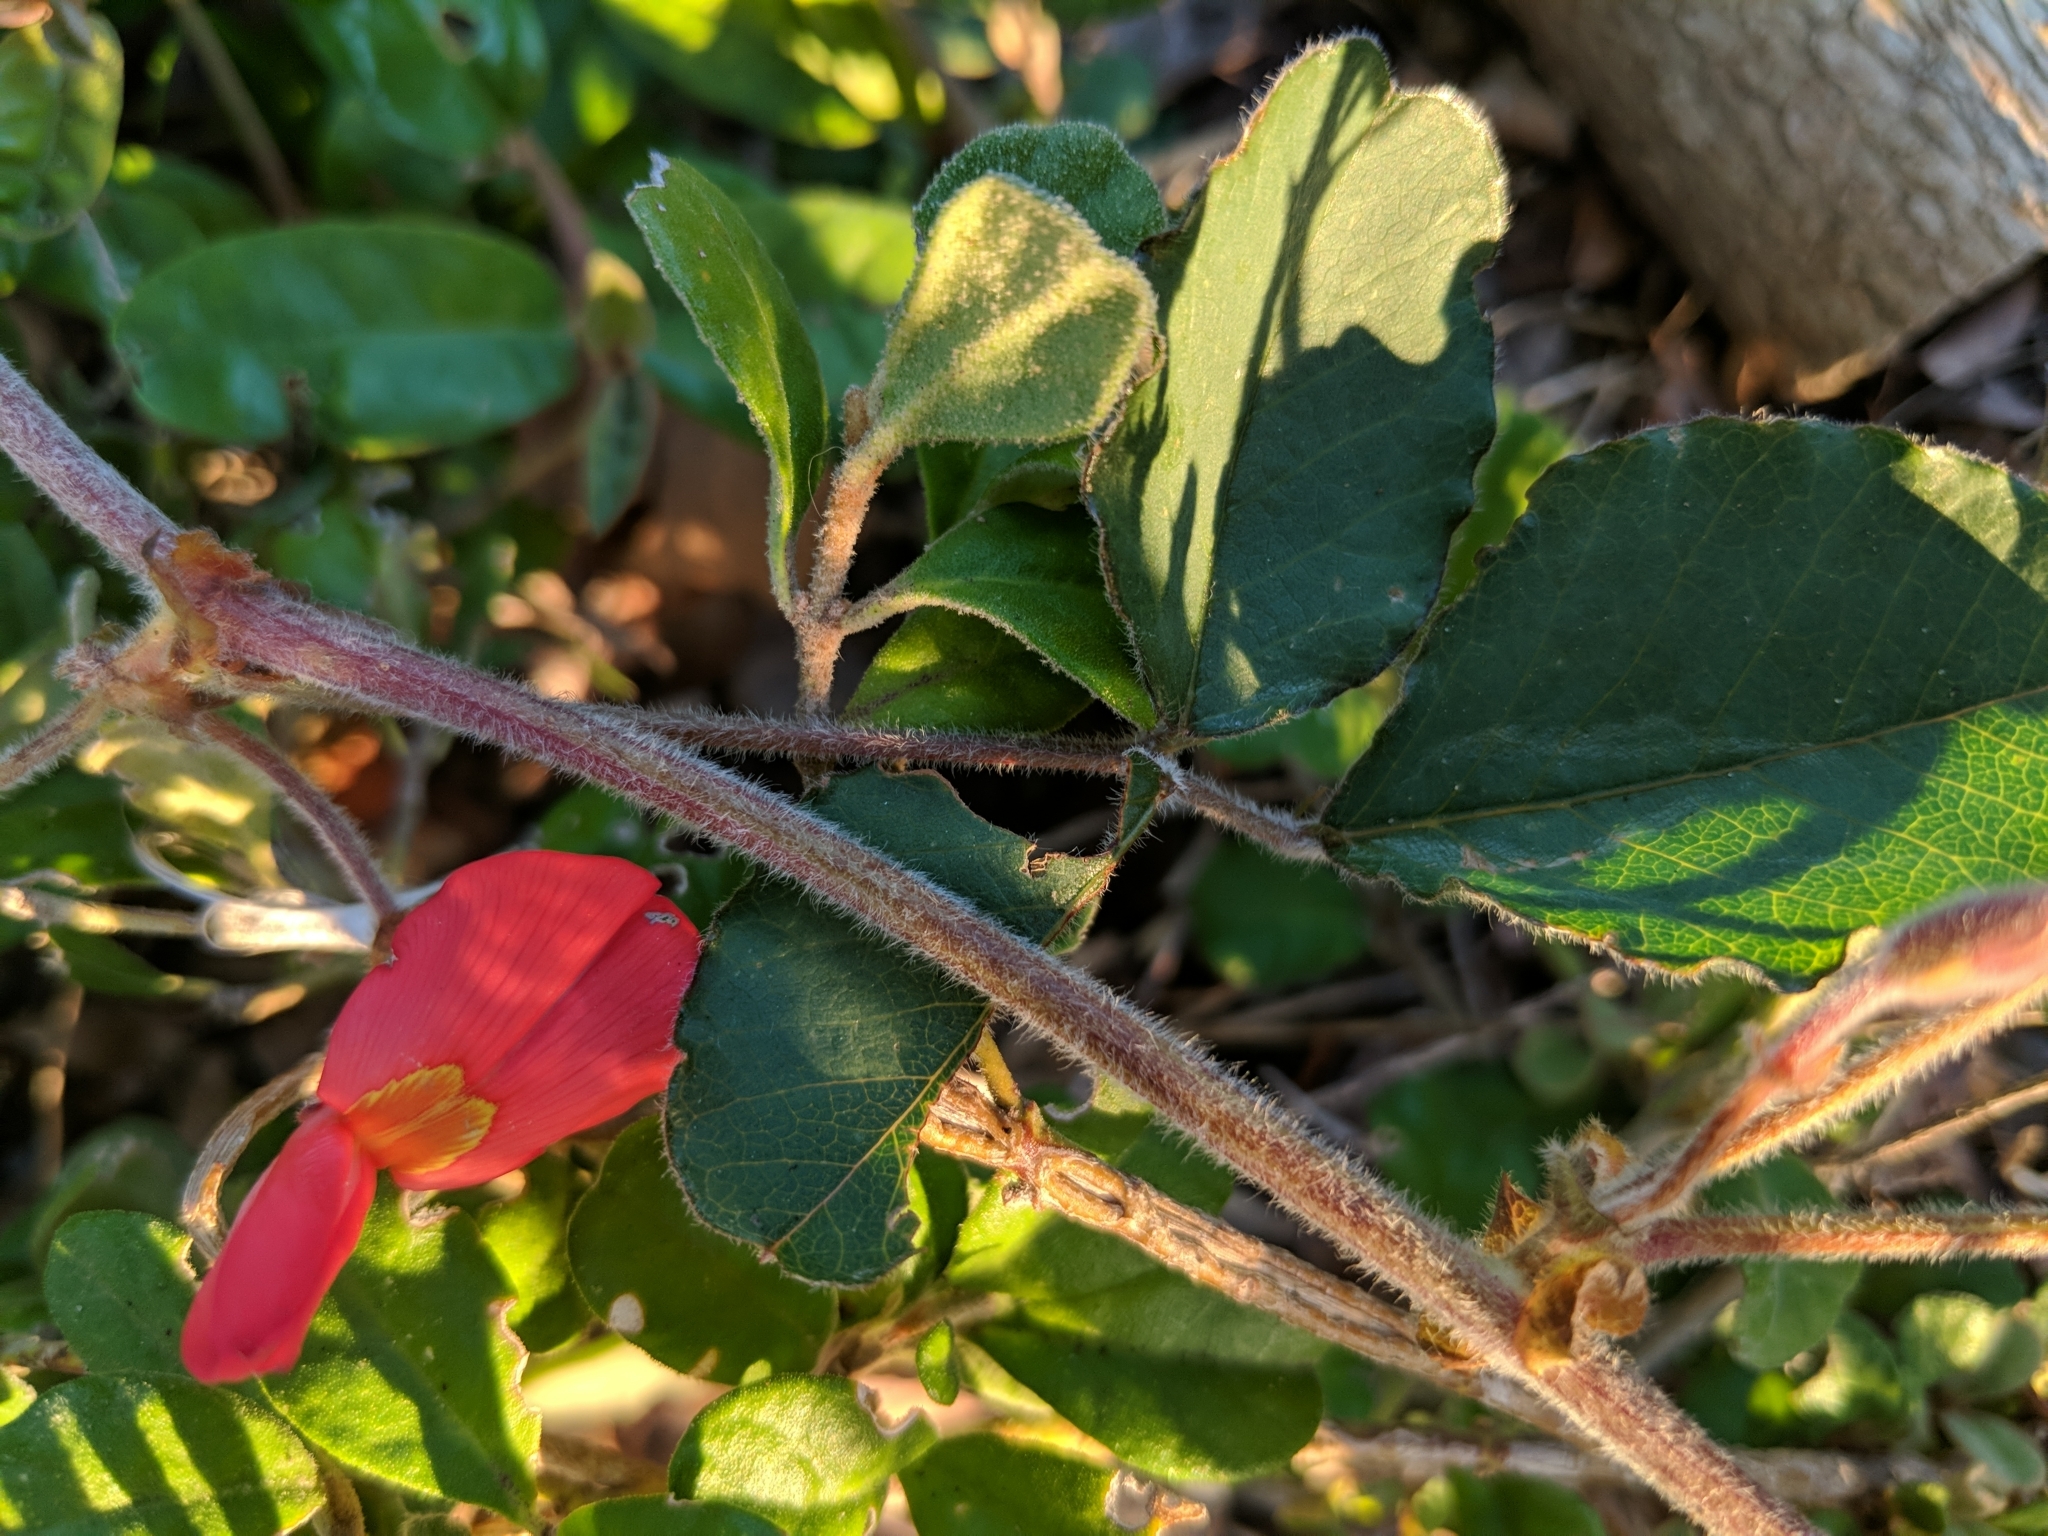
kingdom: Plantae
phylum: Tracheophyta
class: Magnoliopsida
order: Fabales
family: Fabaceae
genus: Kennedia
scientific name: Kennedia prostrata
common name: Running-postman
